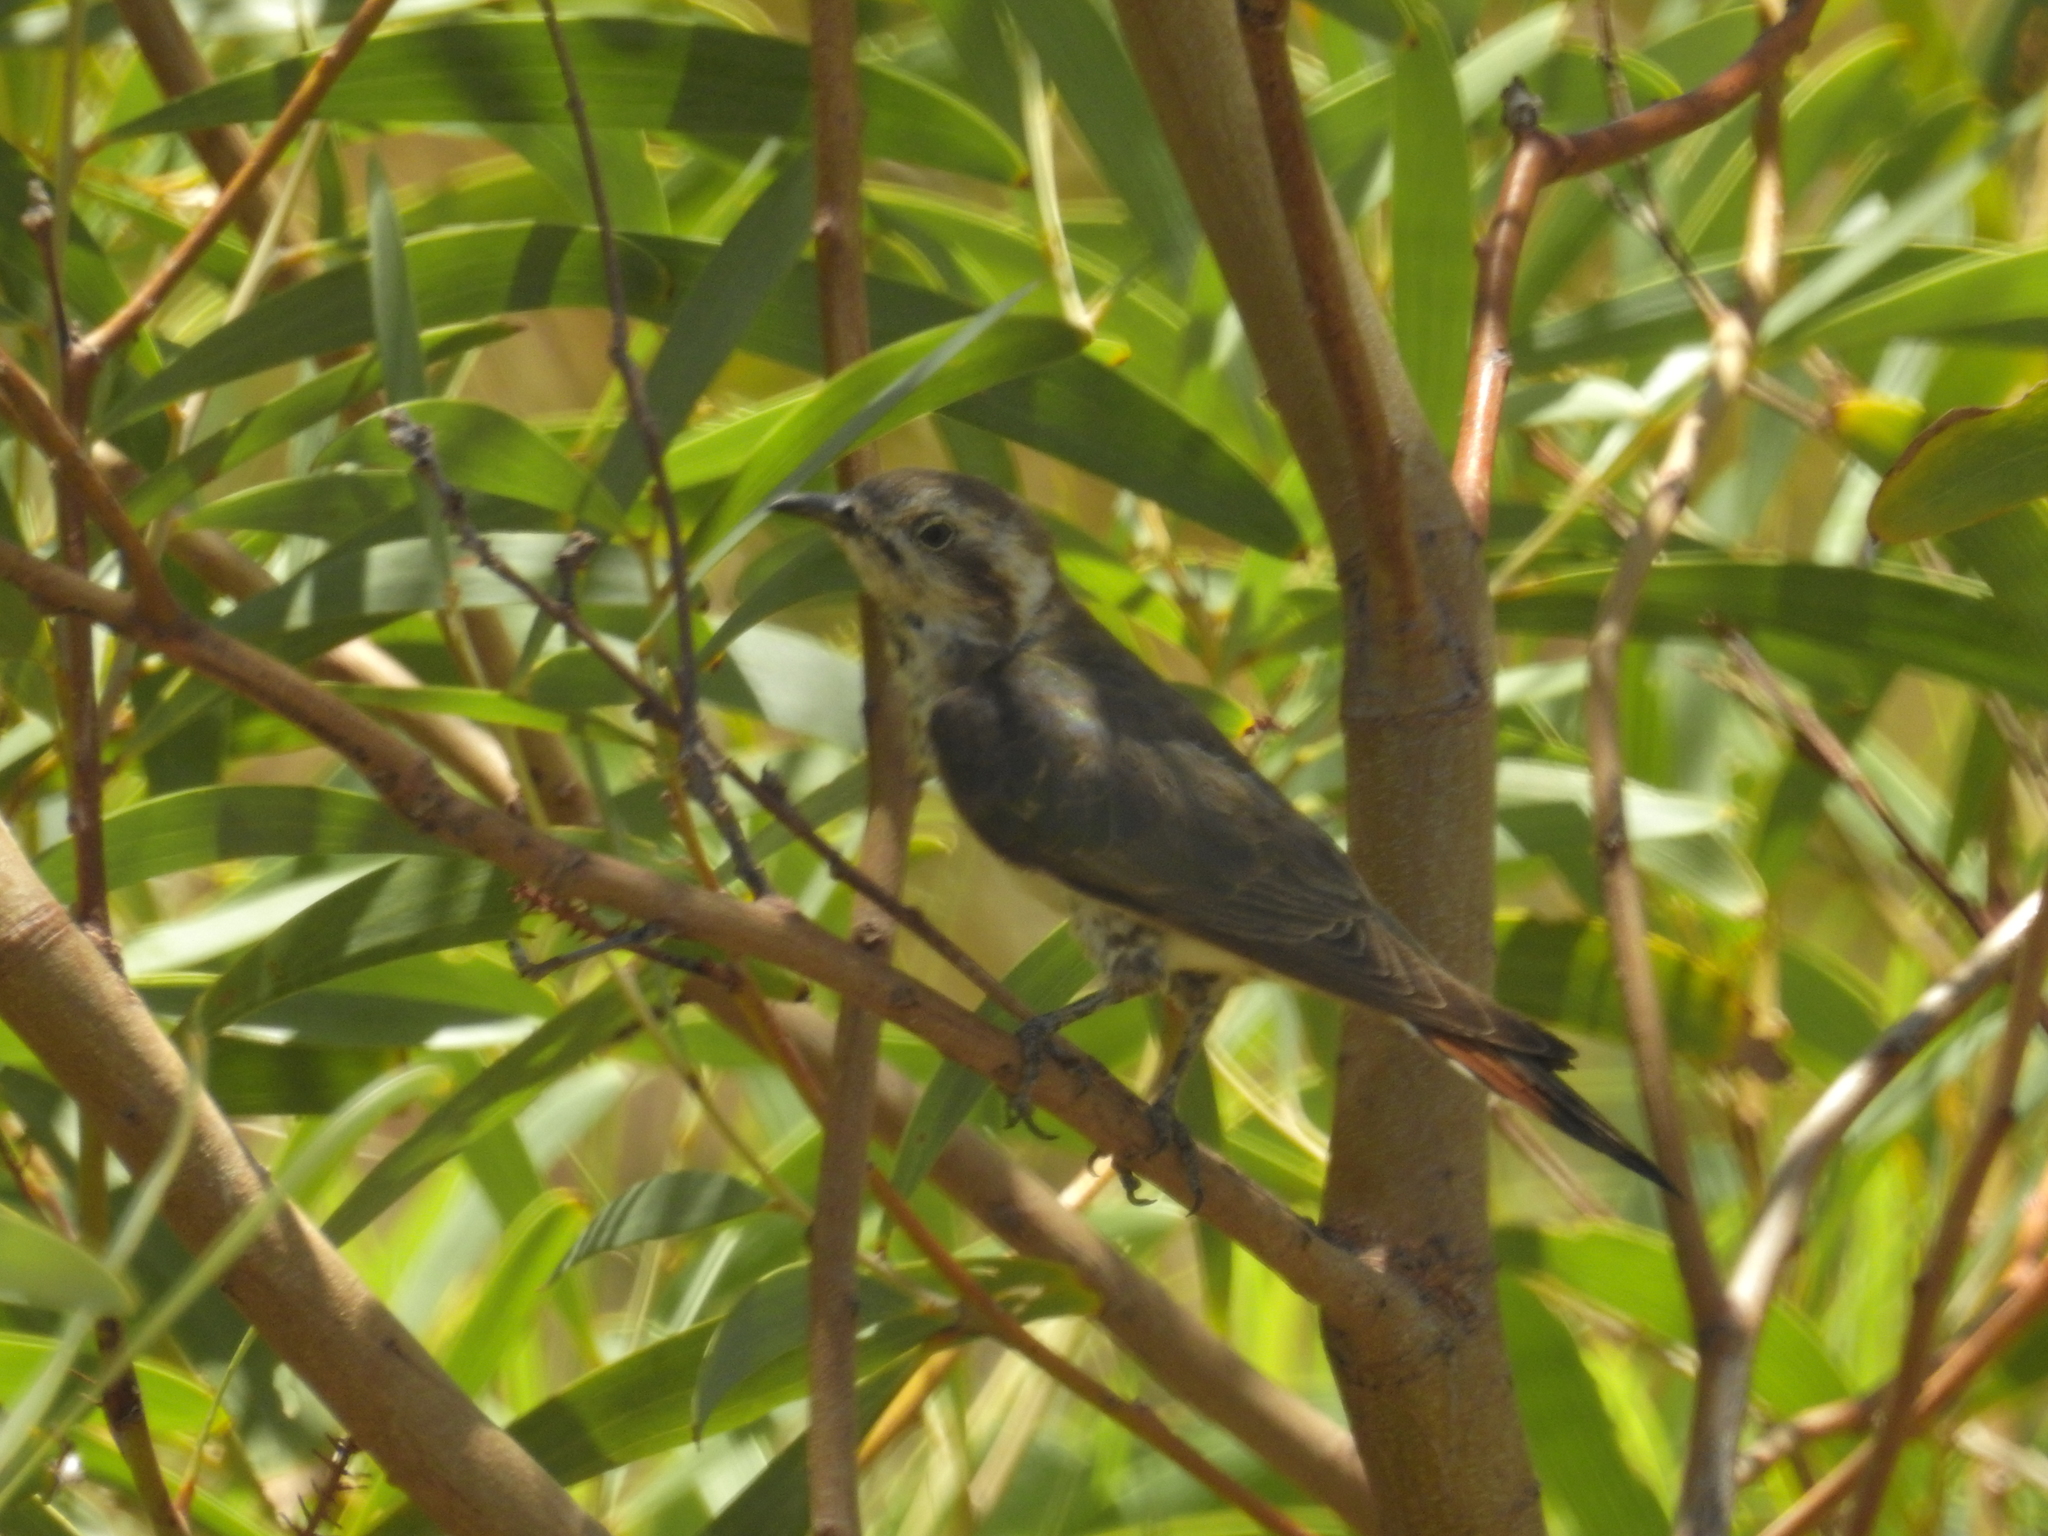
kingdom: Animalia
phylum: Chordata
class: Aves
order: Cuculiformes
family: Cuculidae
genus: Chrysococcyx
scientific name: Chrysococcyx basalis
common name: Horsfield's bronze cuckoo
